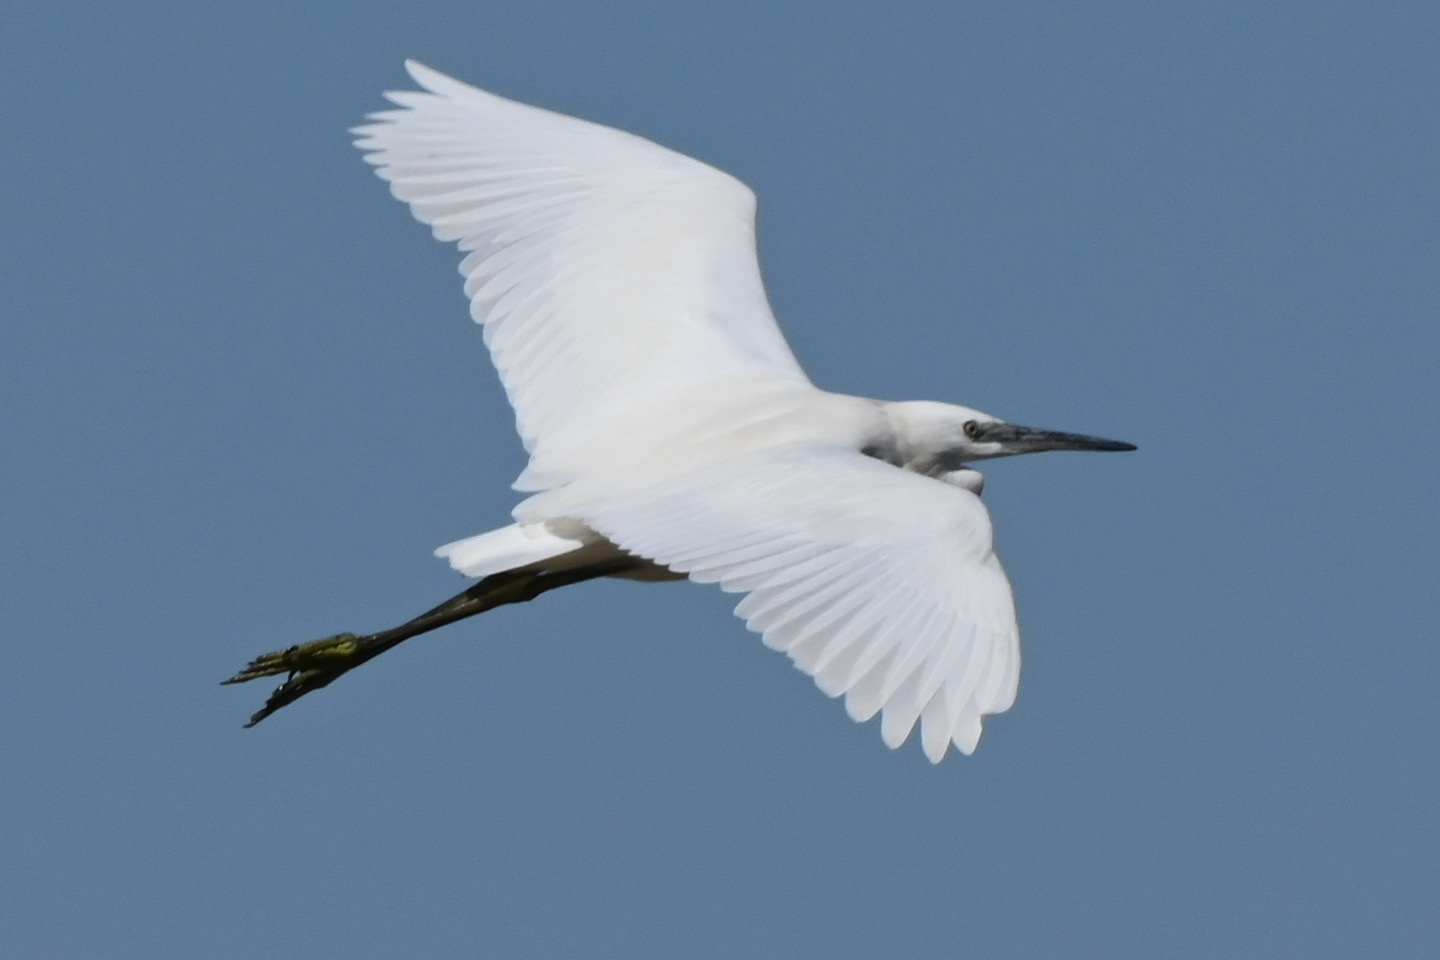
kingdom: Animalia
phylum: Chordata
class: Aves
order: Pelecaniformes
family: Ardeidae
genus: Egretta
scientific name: Egretta garzetta
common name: Little egret
